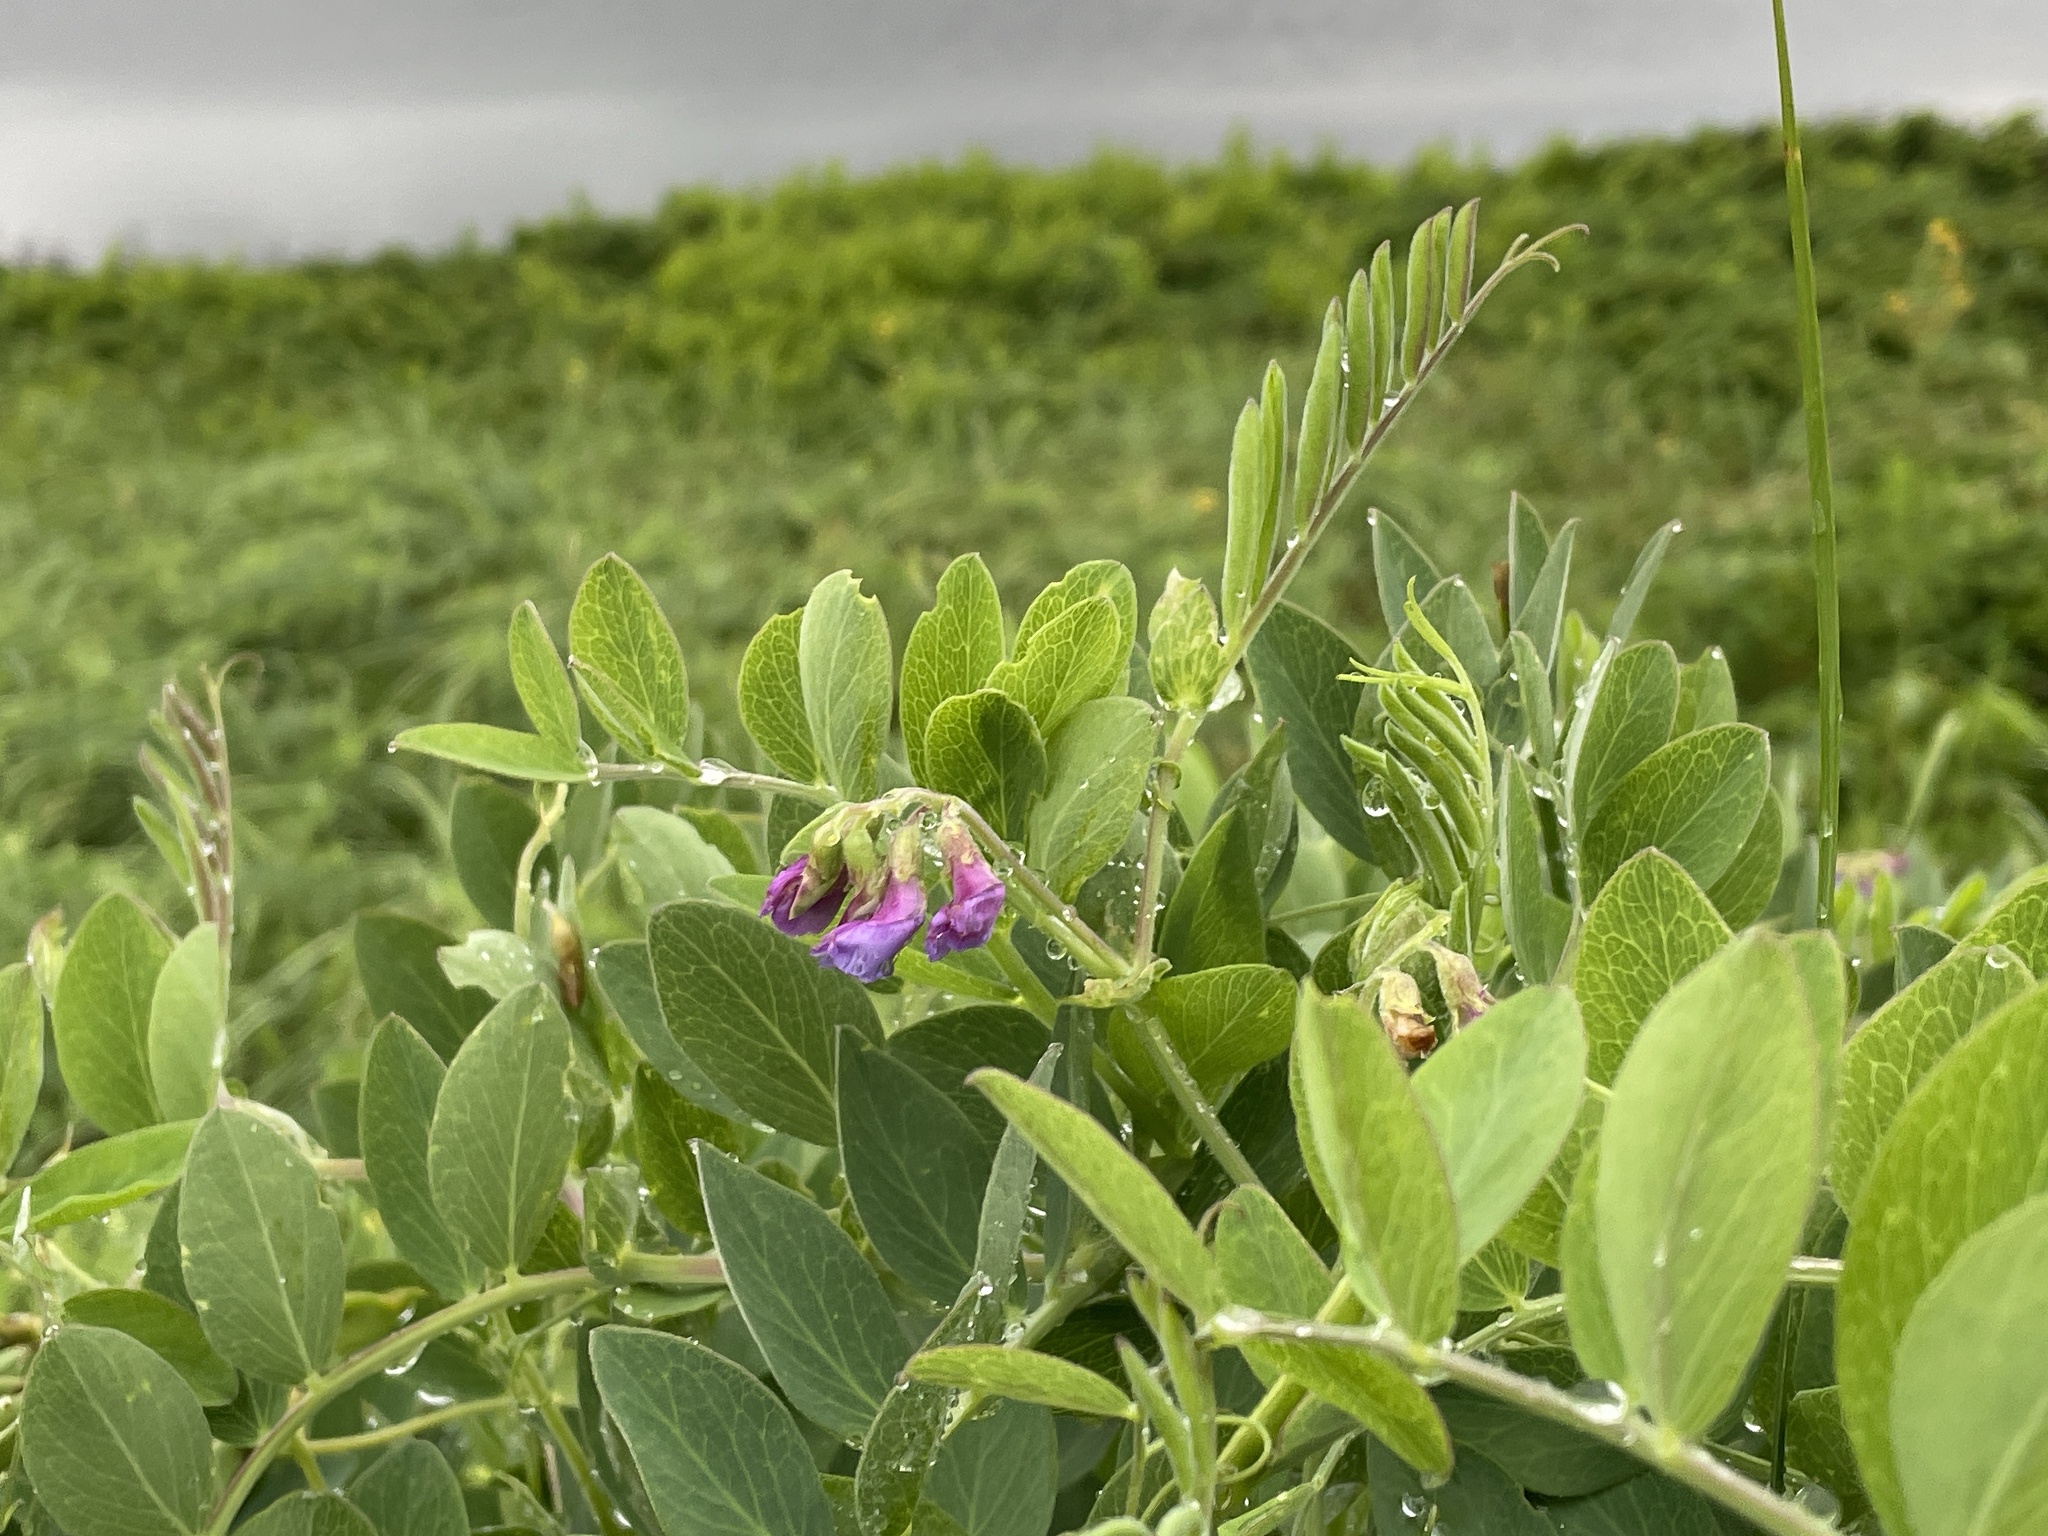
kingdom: Plantae
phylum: Tracheophyta
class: Magnoliopsida
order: Fabales
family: Fabaceae
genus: Lathyrus
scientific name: Lathyrus japonicus
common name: Sea pea
